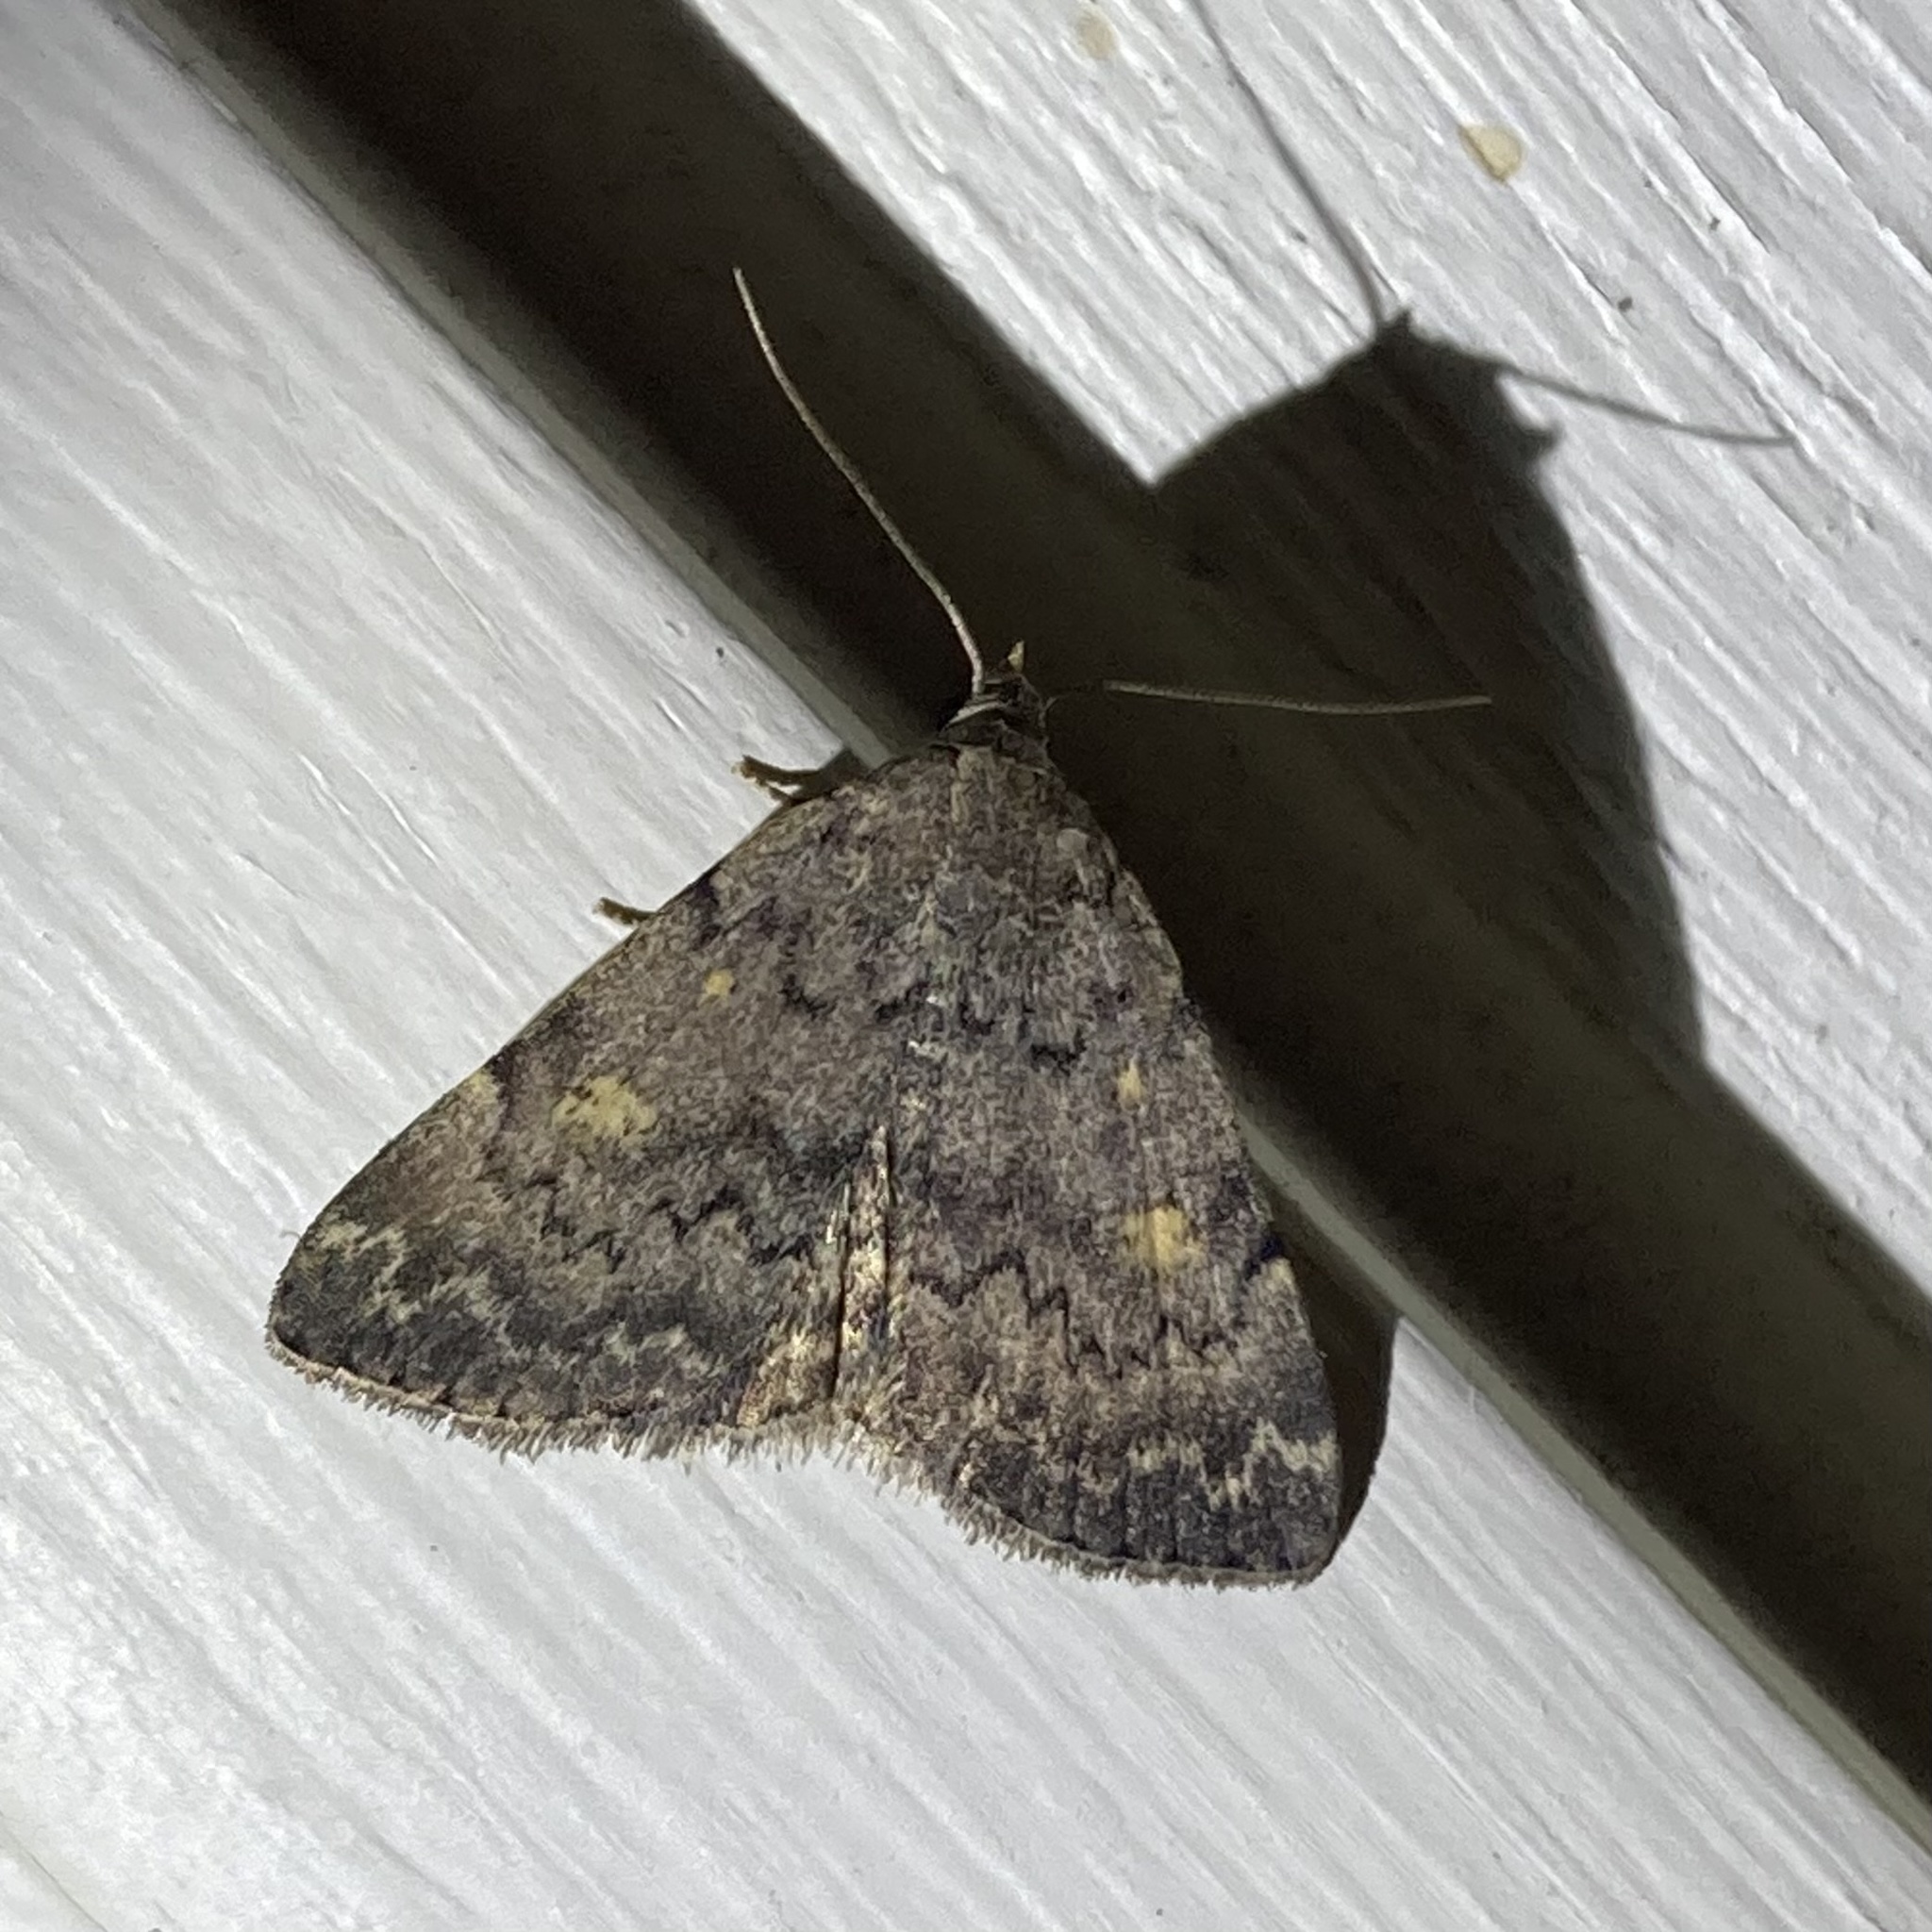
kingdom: Animalia
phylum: Arthropoda
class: Insecta
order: Lepidoptera
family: Erebidae
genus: Idia
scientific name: Idia aemula
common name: Common idia moth
